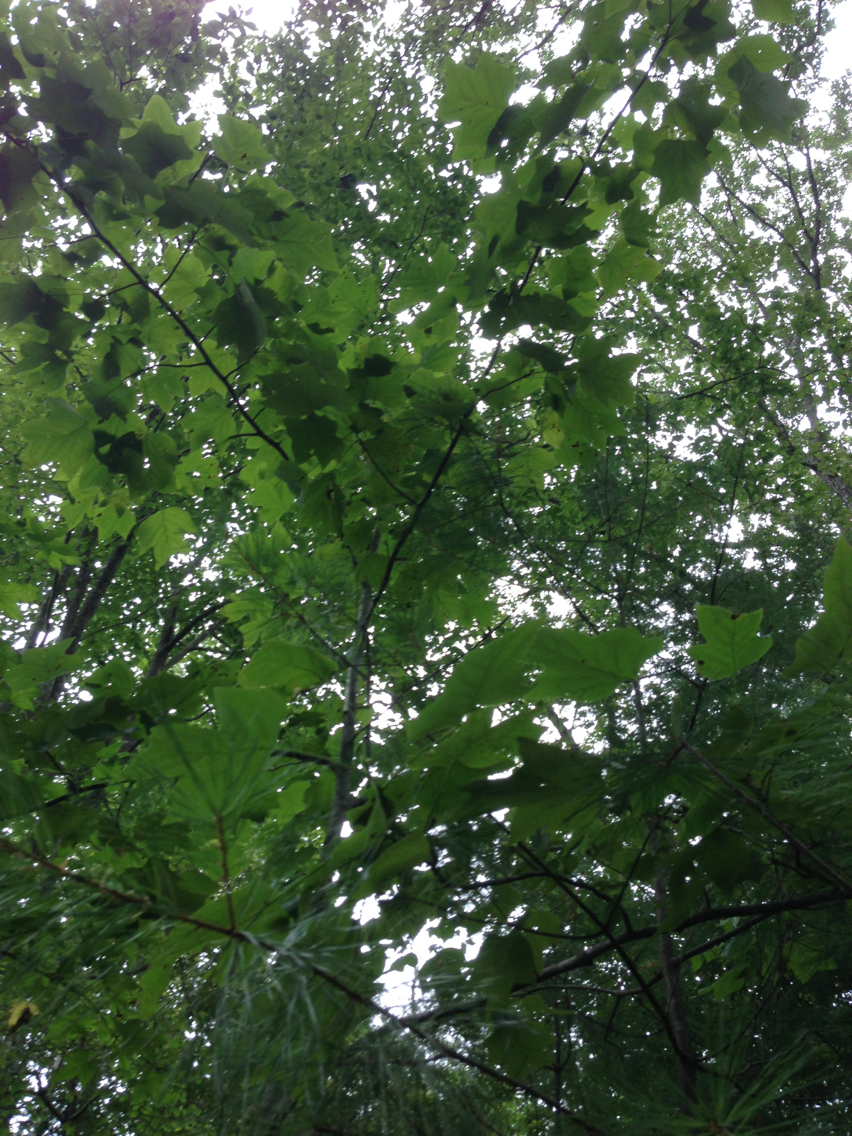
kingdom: Plantae
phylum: Tracheophyta
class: Magnoliopsida
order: Magnoliales
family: Magnoliaceae
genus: Liriodendron
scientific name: Liriodendron tulipifera
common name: Tulip tree
